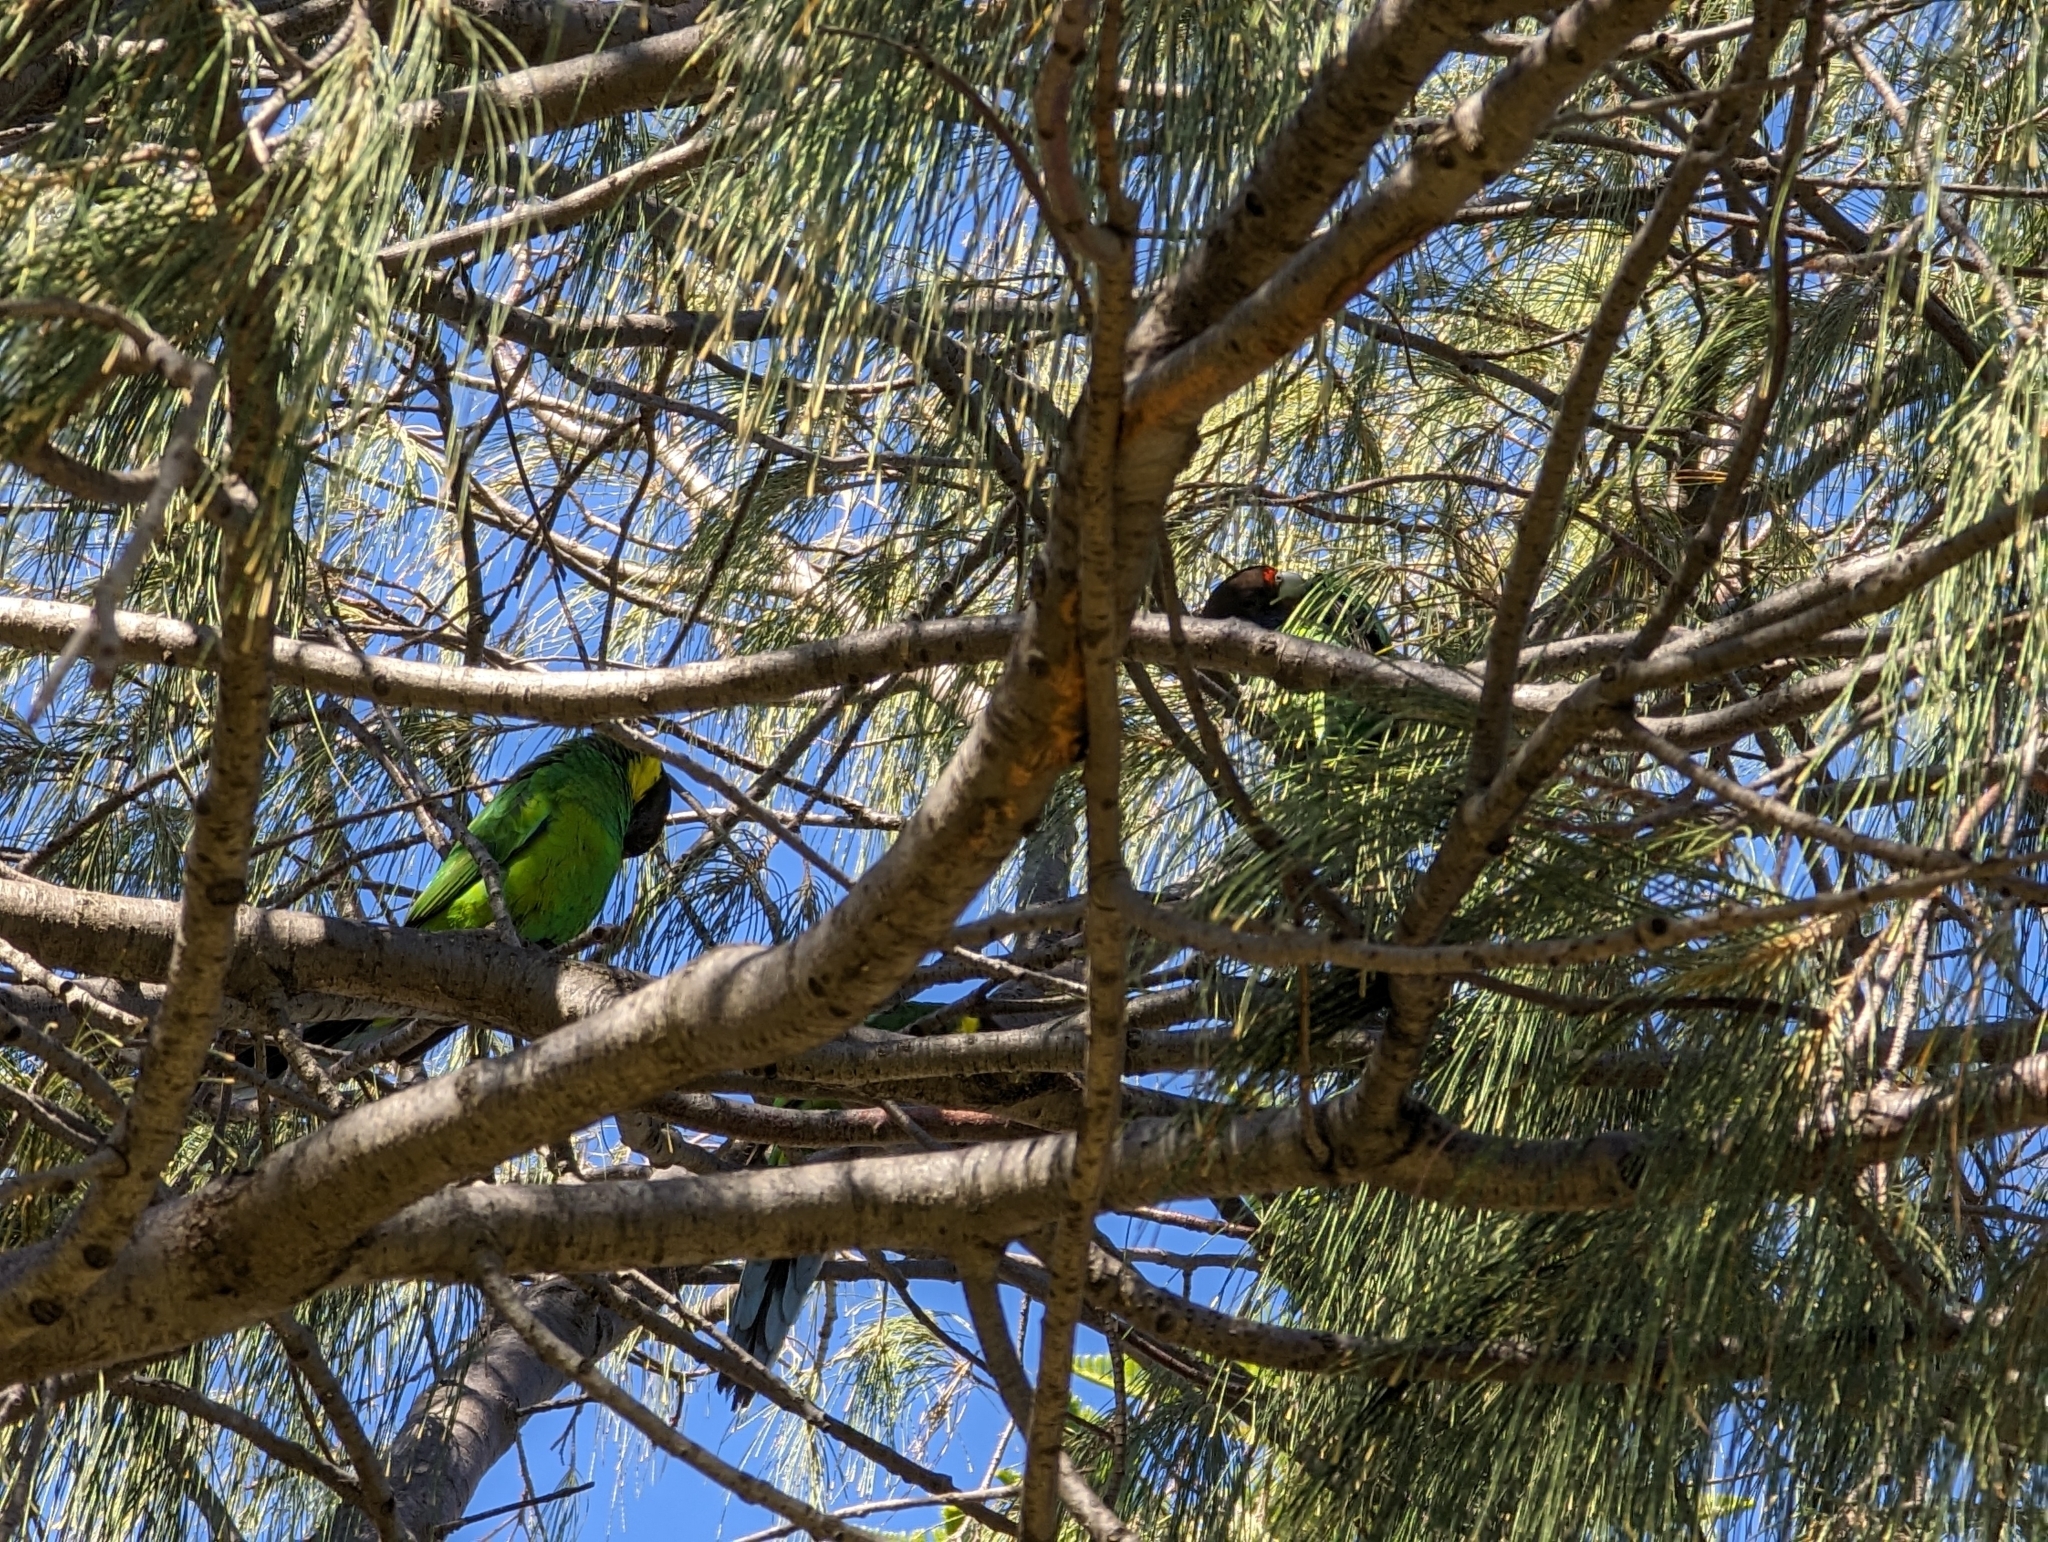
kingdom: Animalia
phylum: Chordata
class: Aves
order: Psittaciformes
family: Psittacidae
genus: Barnardius
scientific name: Barnardius zonarius
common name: Australian ringneck
